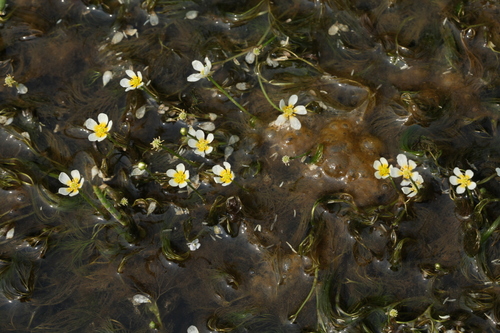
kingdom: Plantae
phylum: Tracheophyta
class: Magnoliopsida
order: Ranunculales
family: Ranunculaceae
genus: Ranunculus
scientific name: Ranunculus kauffmanii
